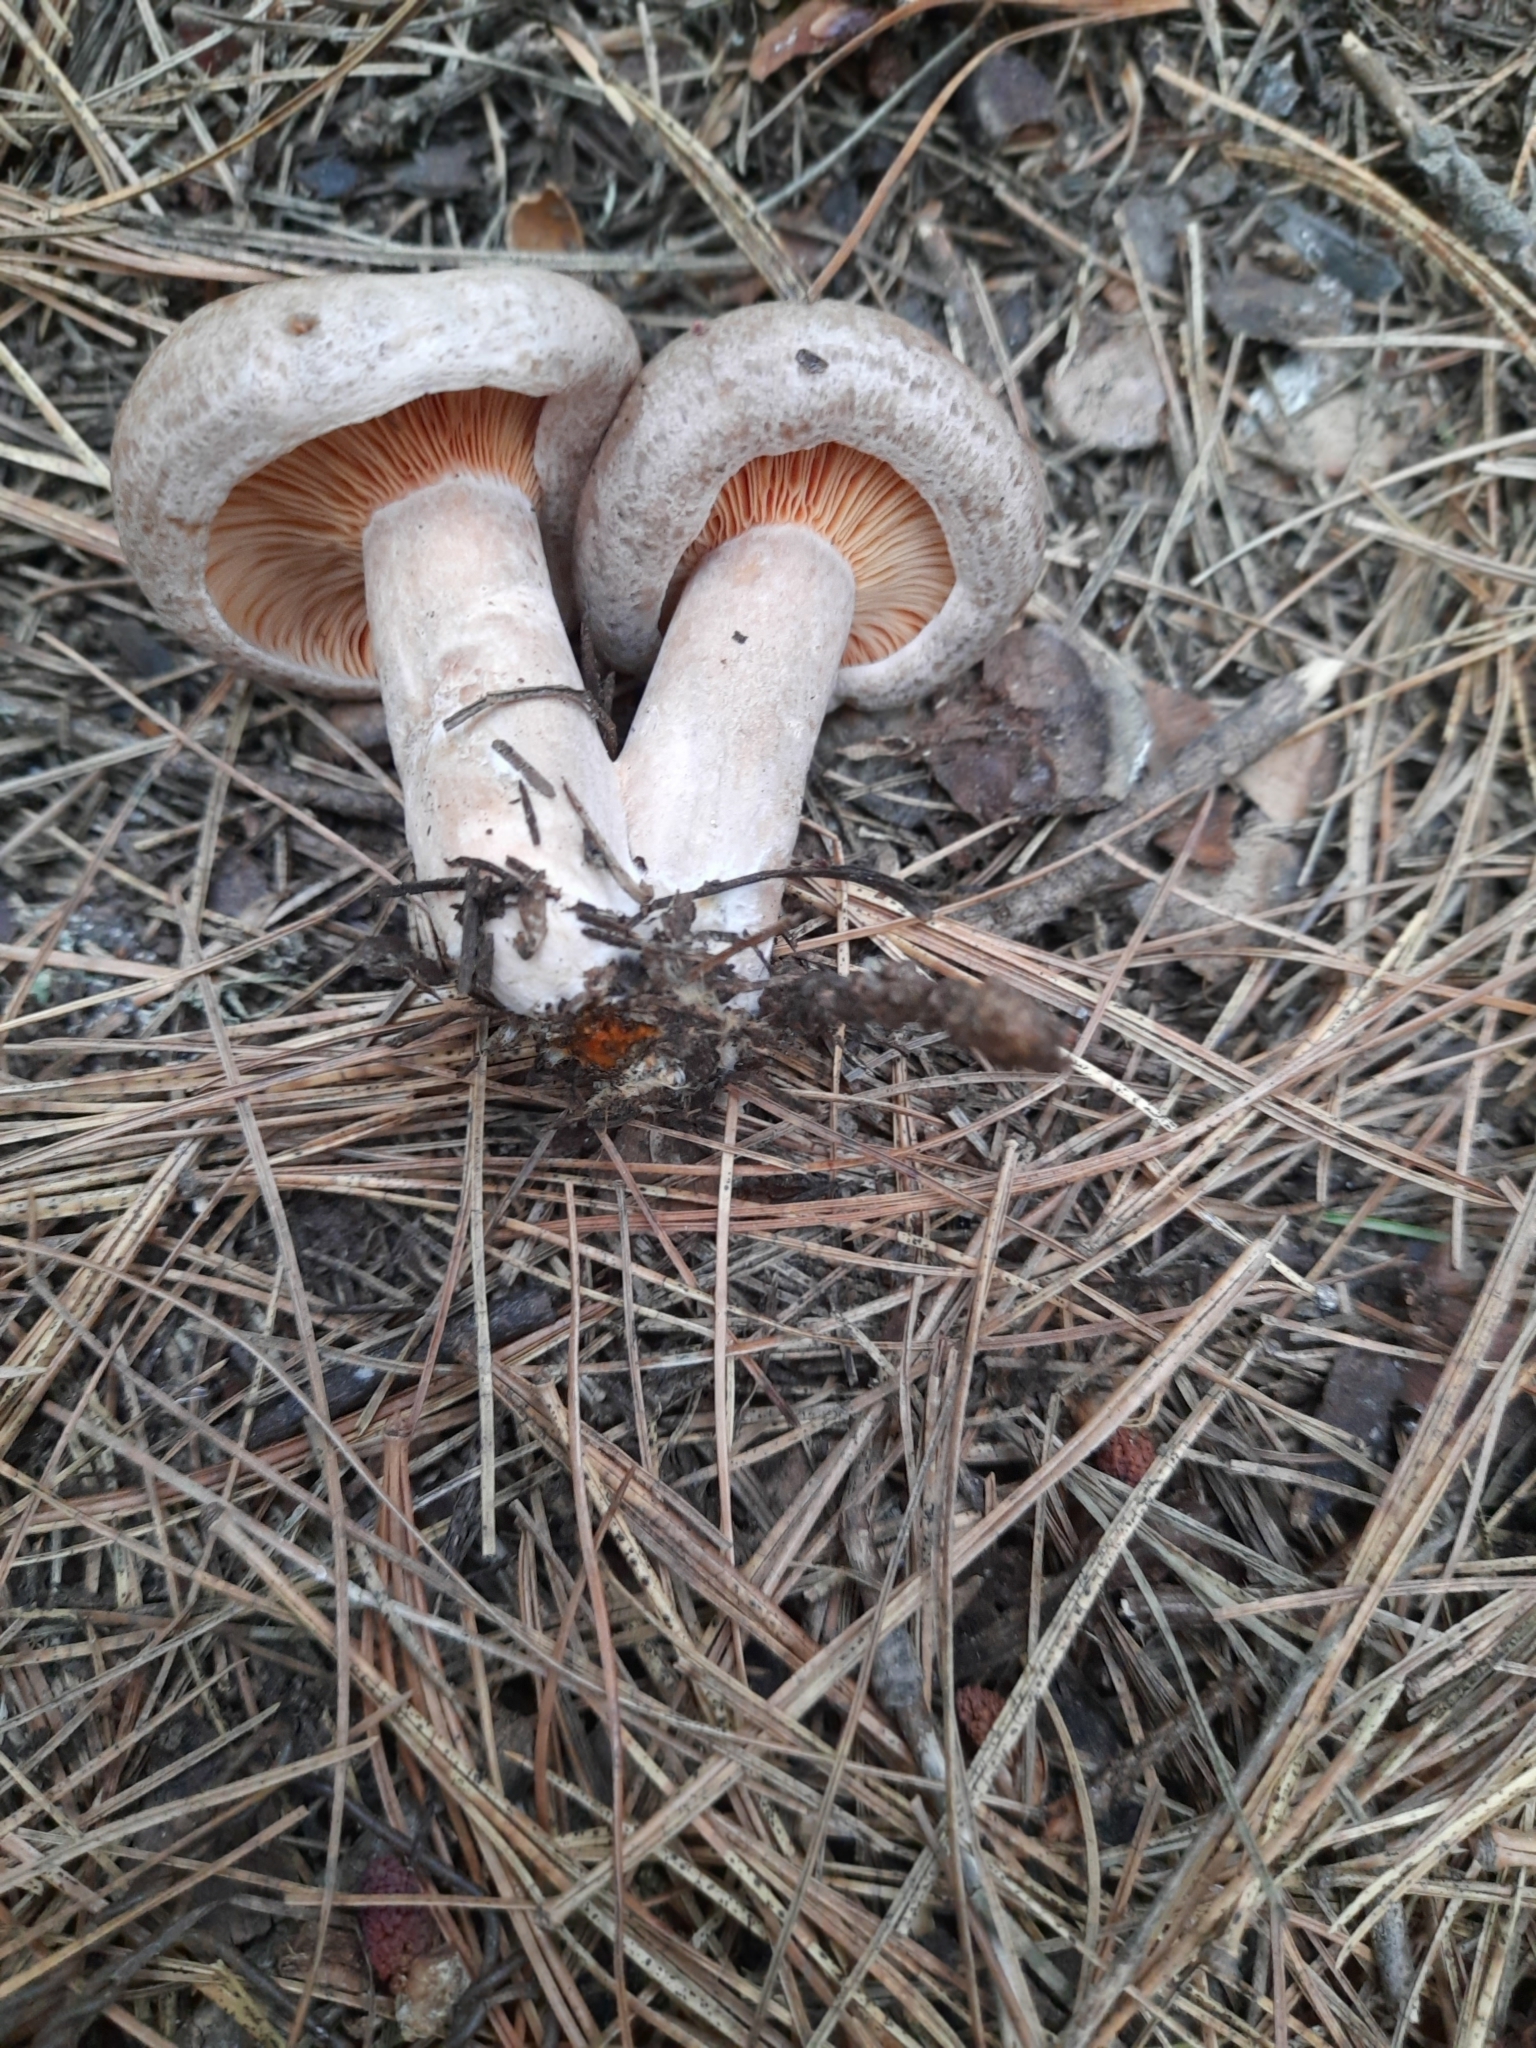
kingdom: Fungi
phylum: Basidiomycota
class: Agaricomycetes
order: Russulales
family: Russulaceae
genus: Lactarius
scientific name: Lactarius deliciosus
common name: Saffron milk-cap
